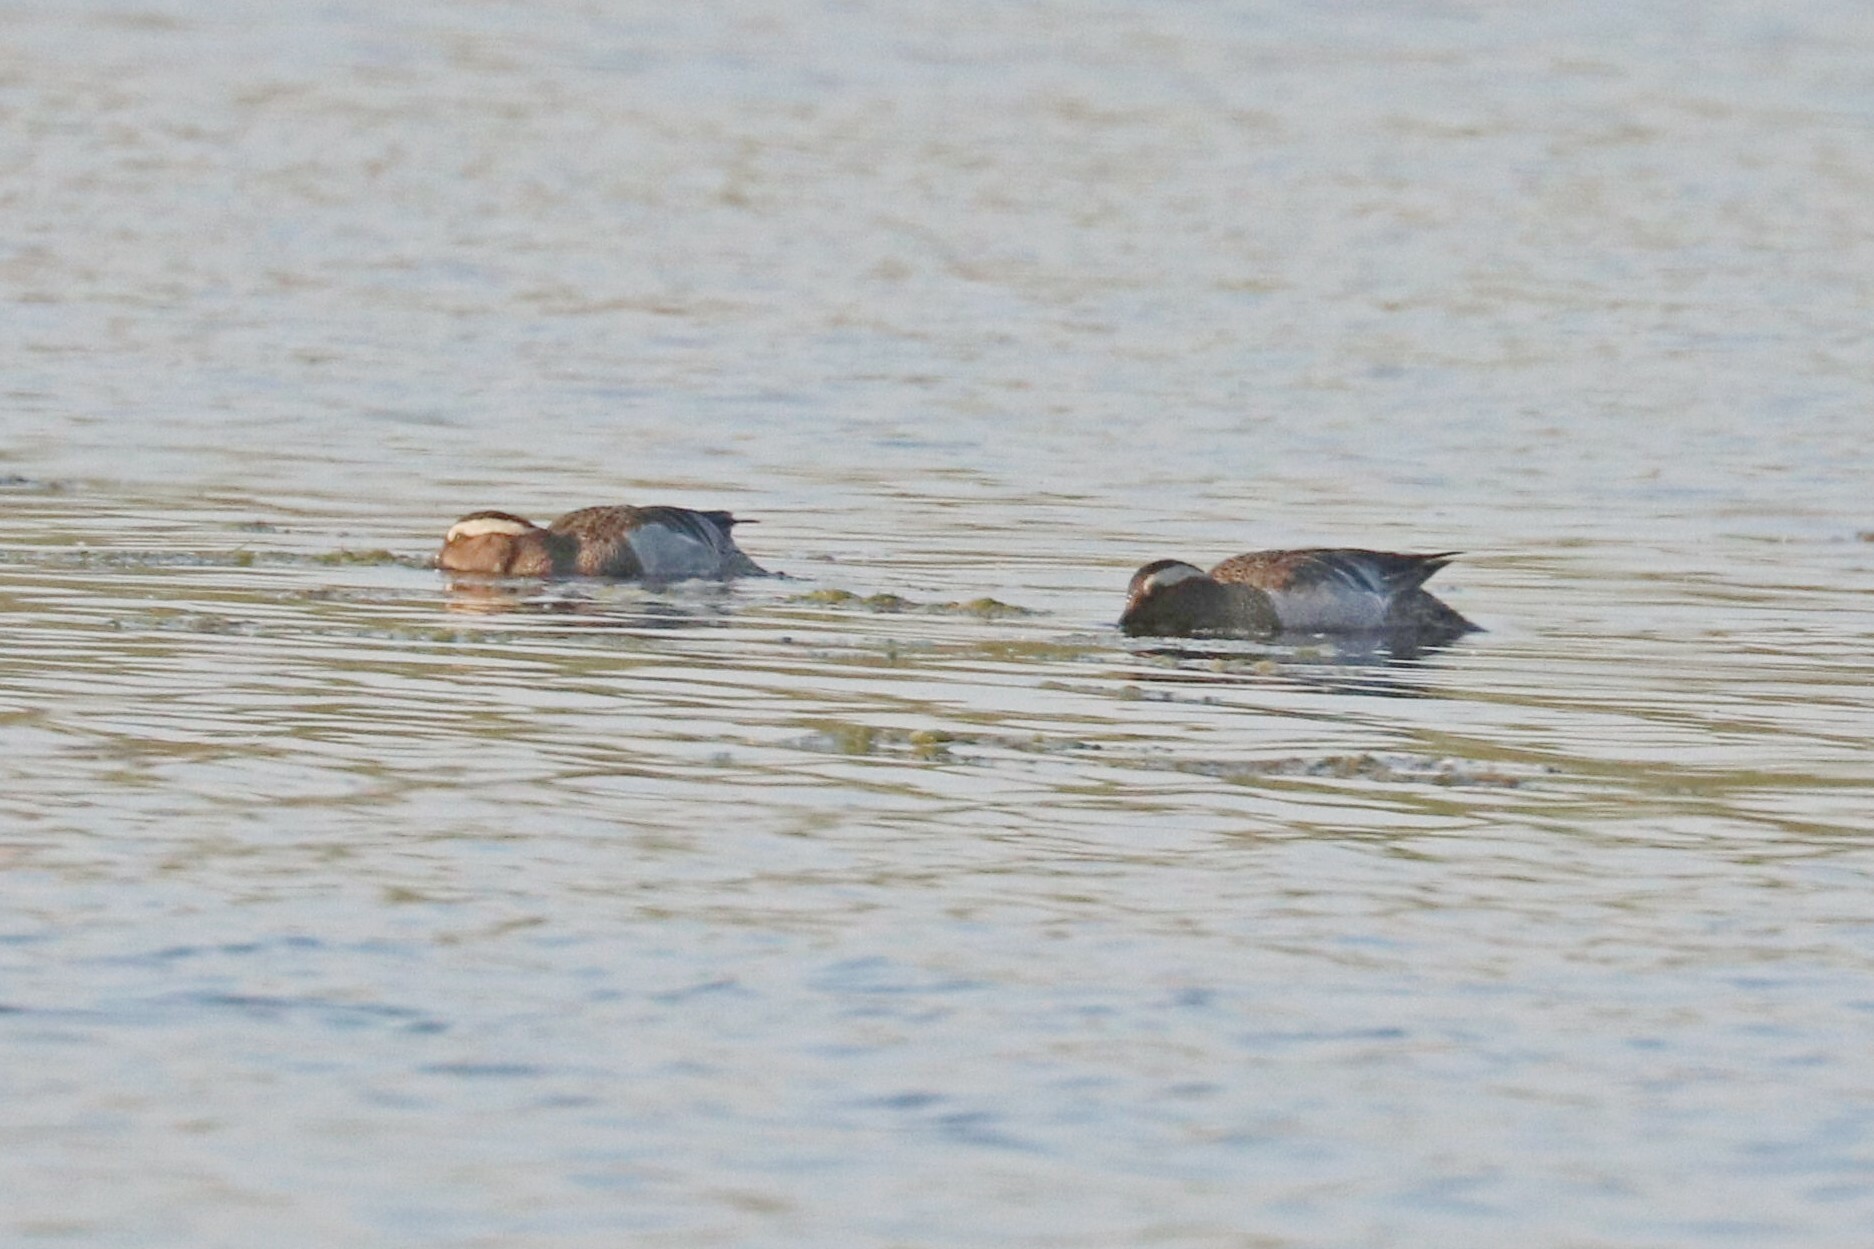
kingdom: Animalia
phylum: Chordata
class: Aves
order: Anseriformes
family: Anatidae
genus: Spatula
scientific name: Spatula querquedula
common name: Garganey
